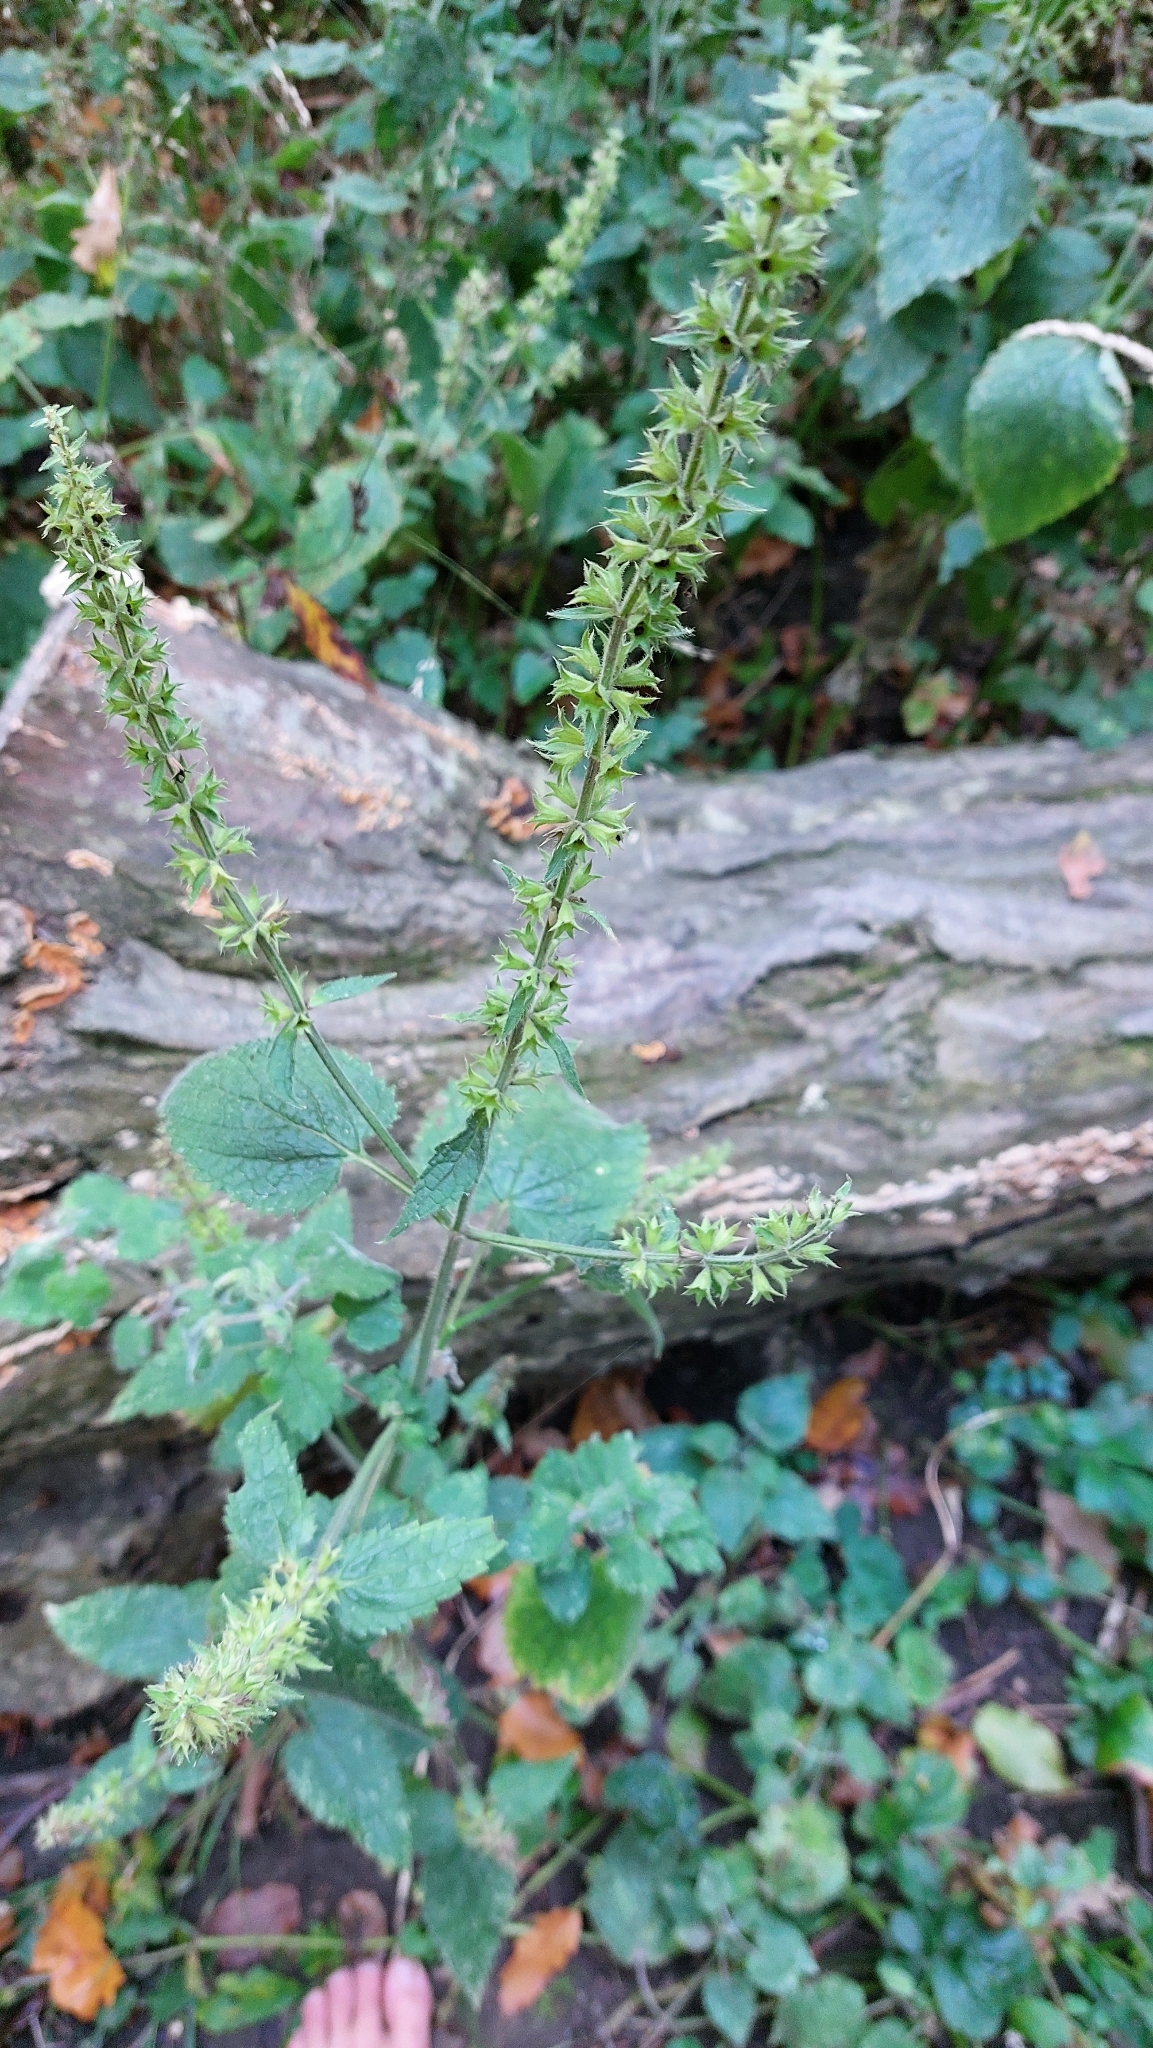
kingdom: Plantae
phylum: Tracheophyta
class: Magnoliopsida
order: Lamiales
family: Lamiaceae
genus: Stachys
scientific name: Stachys sylvatica
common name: Hedge woundwort
